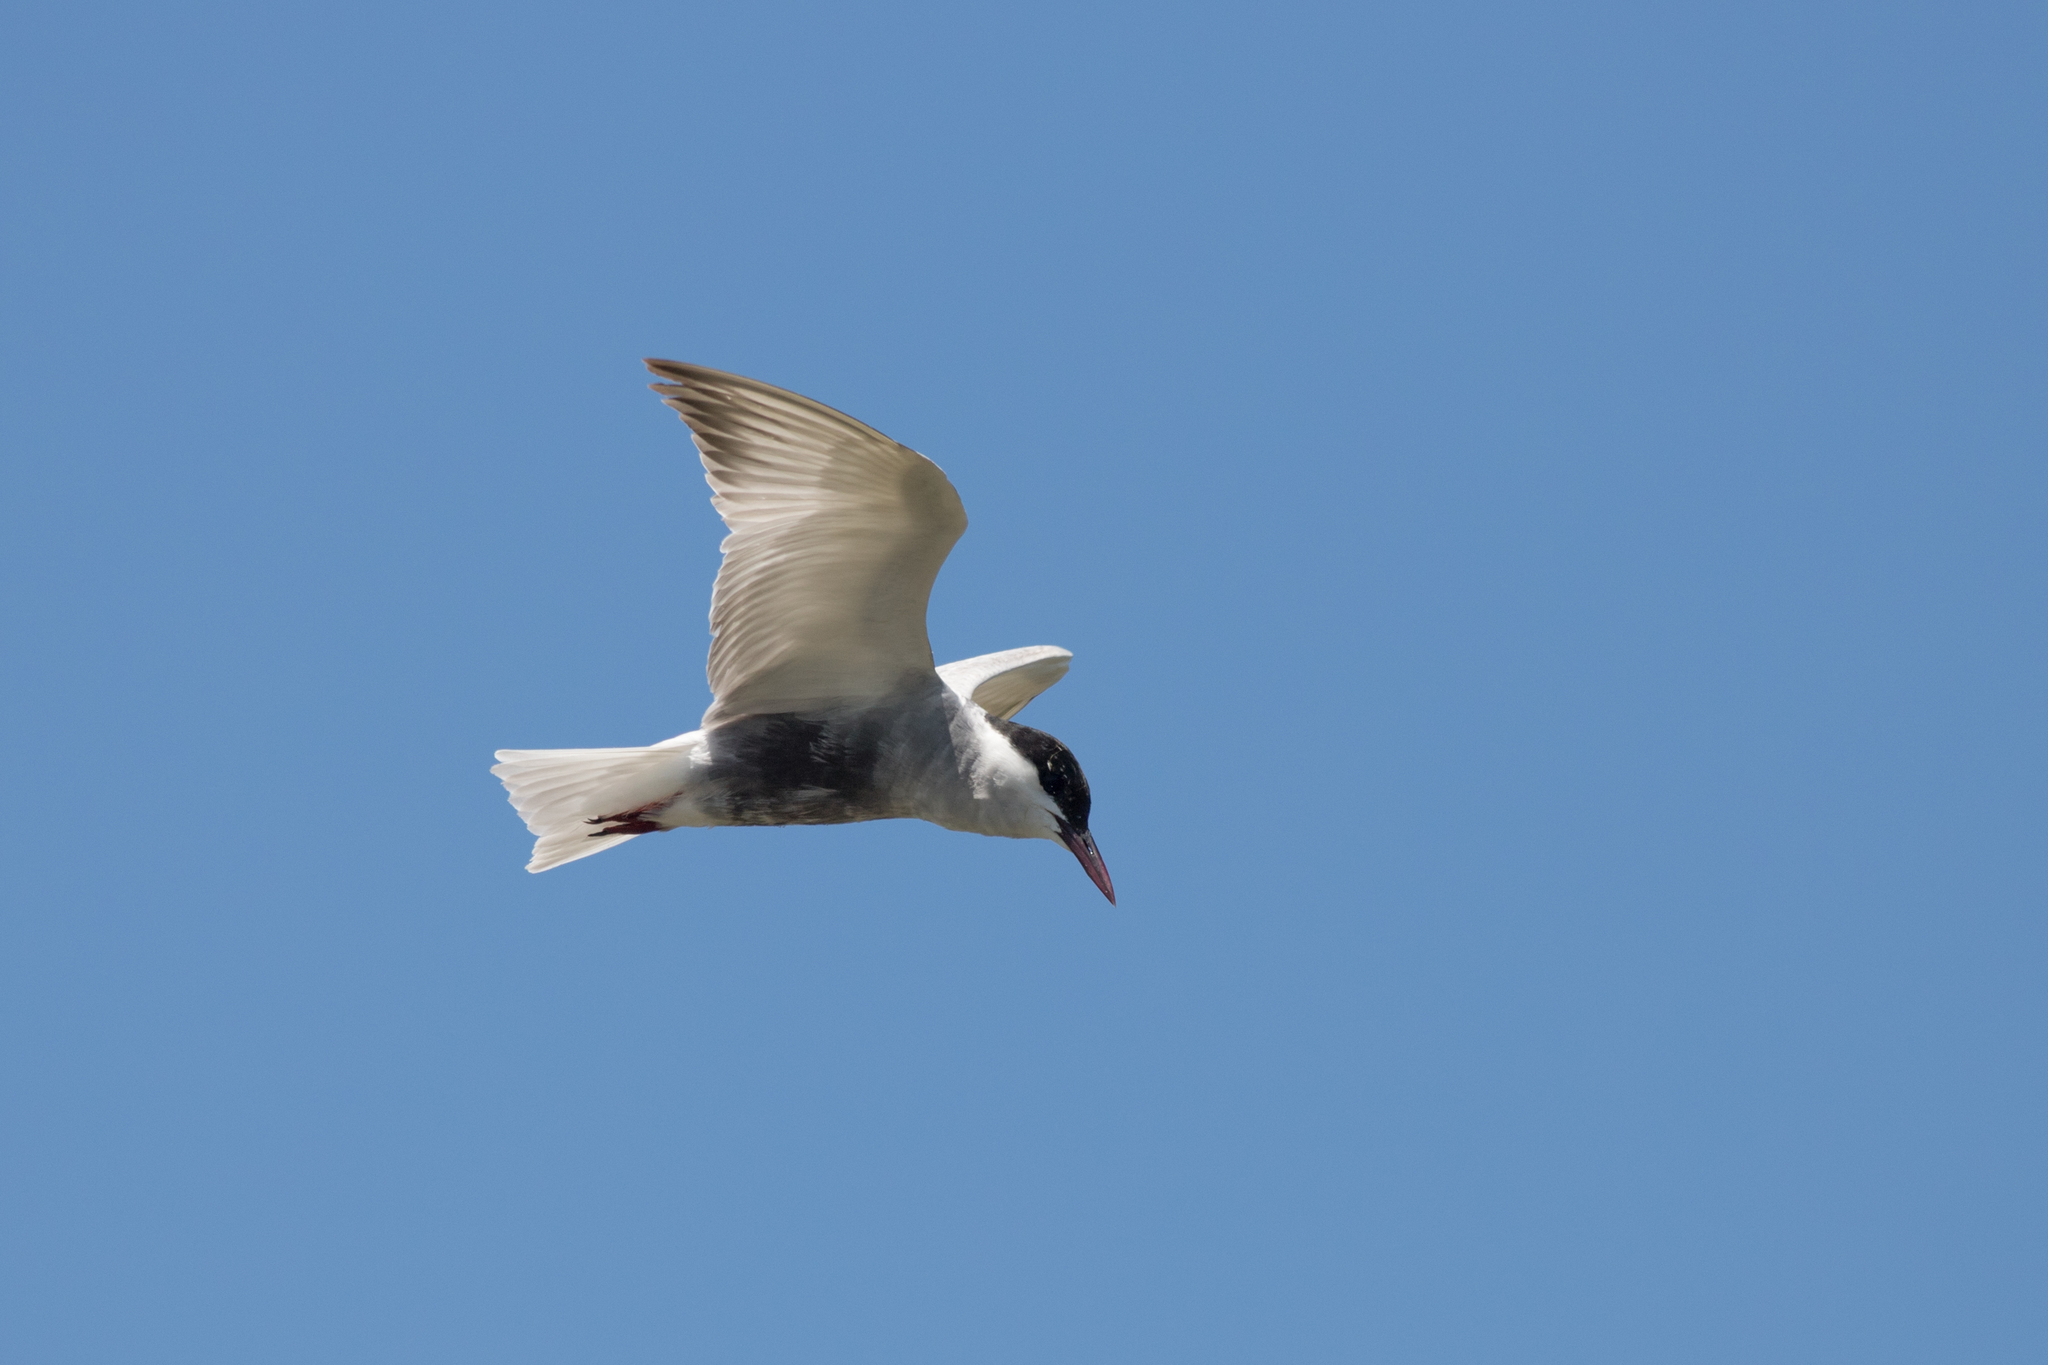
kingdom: Animalia
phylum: Chordata
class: Aves
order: Charadriiformes
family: Laridae
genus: Chlidonias
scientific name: Chlidonias hybrida
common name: Whiskered tern
